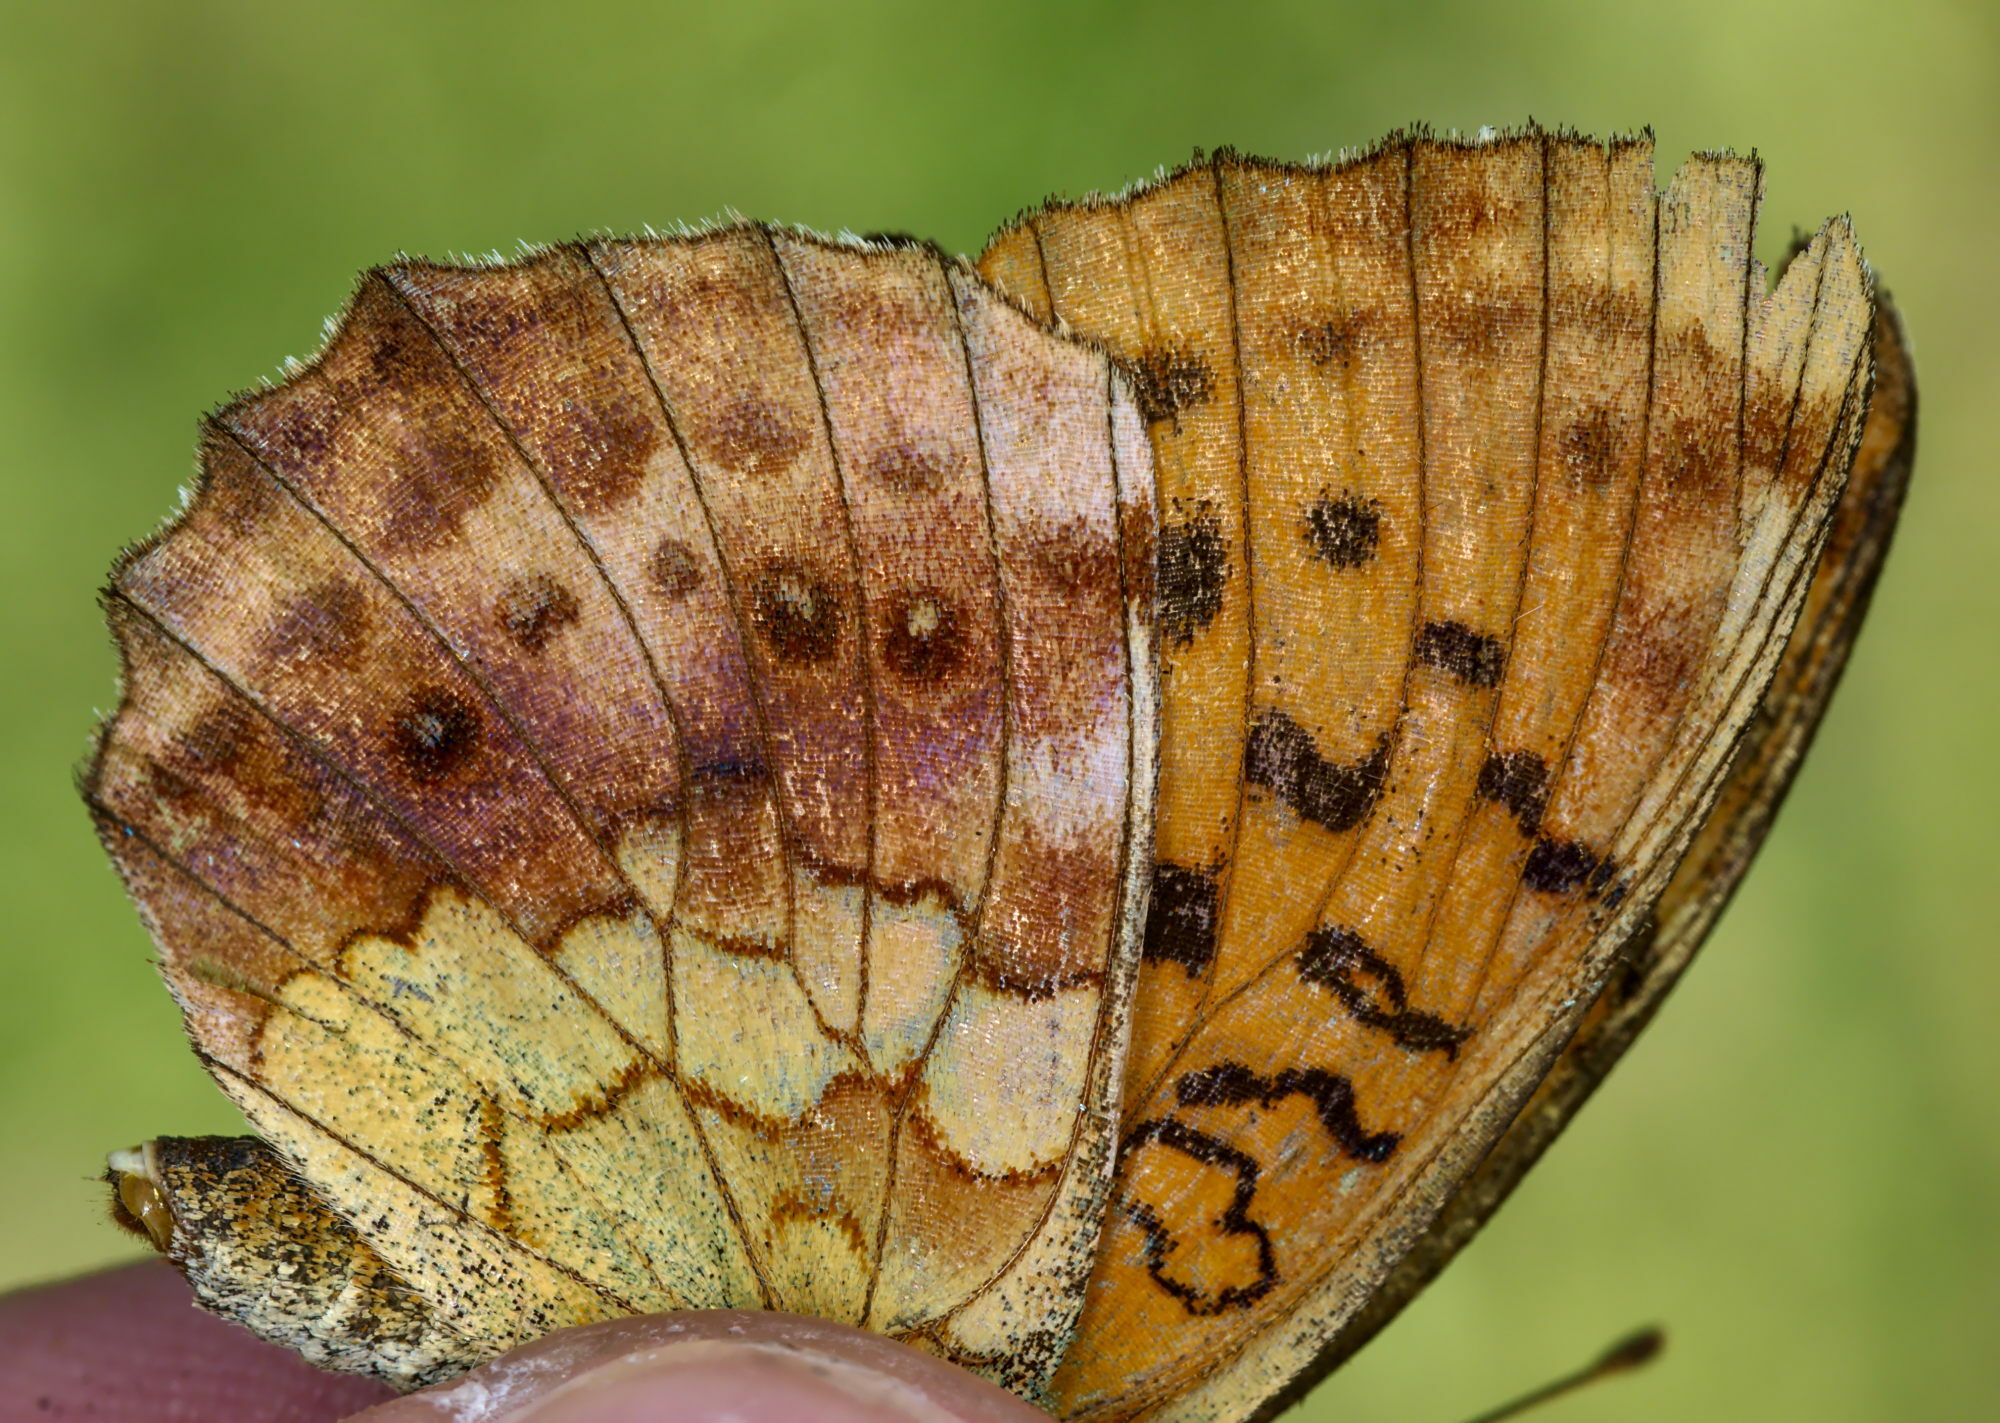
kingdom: Animalia
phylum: Arthropoda
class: Insecta
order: Lepidoptera
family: Nymphalidae
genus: Brenthis
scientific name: Brenthis daphne
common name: Marbled fritillary
